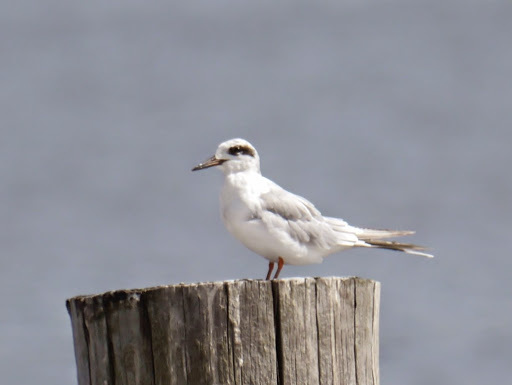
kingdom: Animalia
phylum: Chordata
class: Aves
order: Charadriiformes
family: Laridae
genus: Sterna
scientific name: Sterna forsteri
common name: Forster's tern
